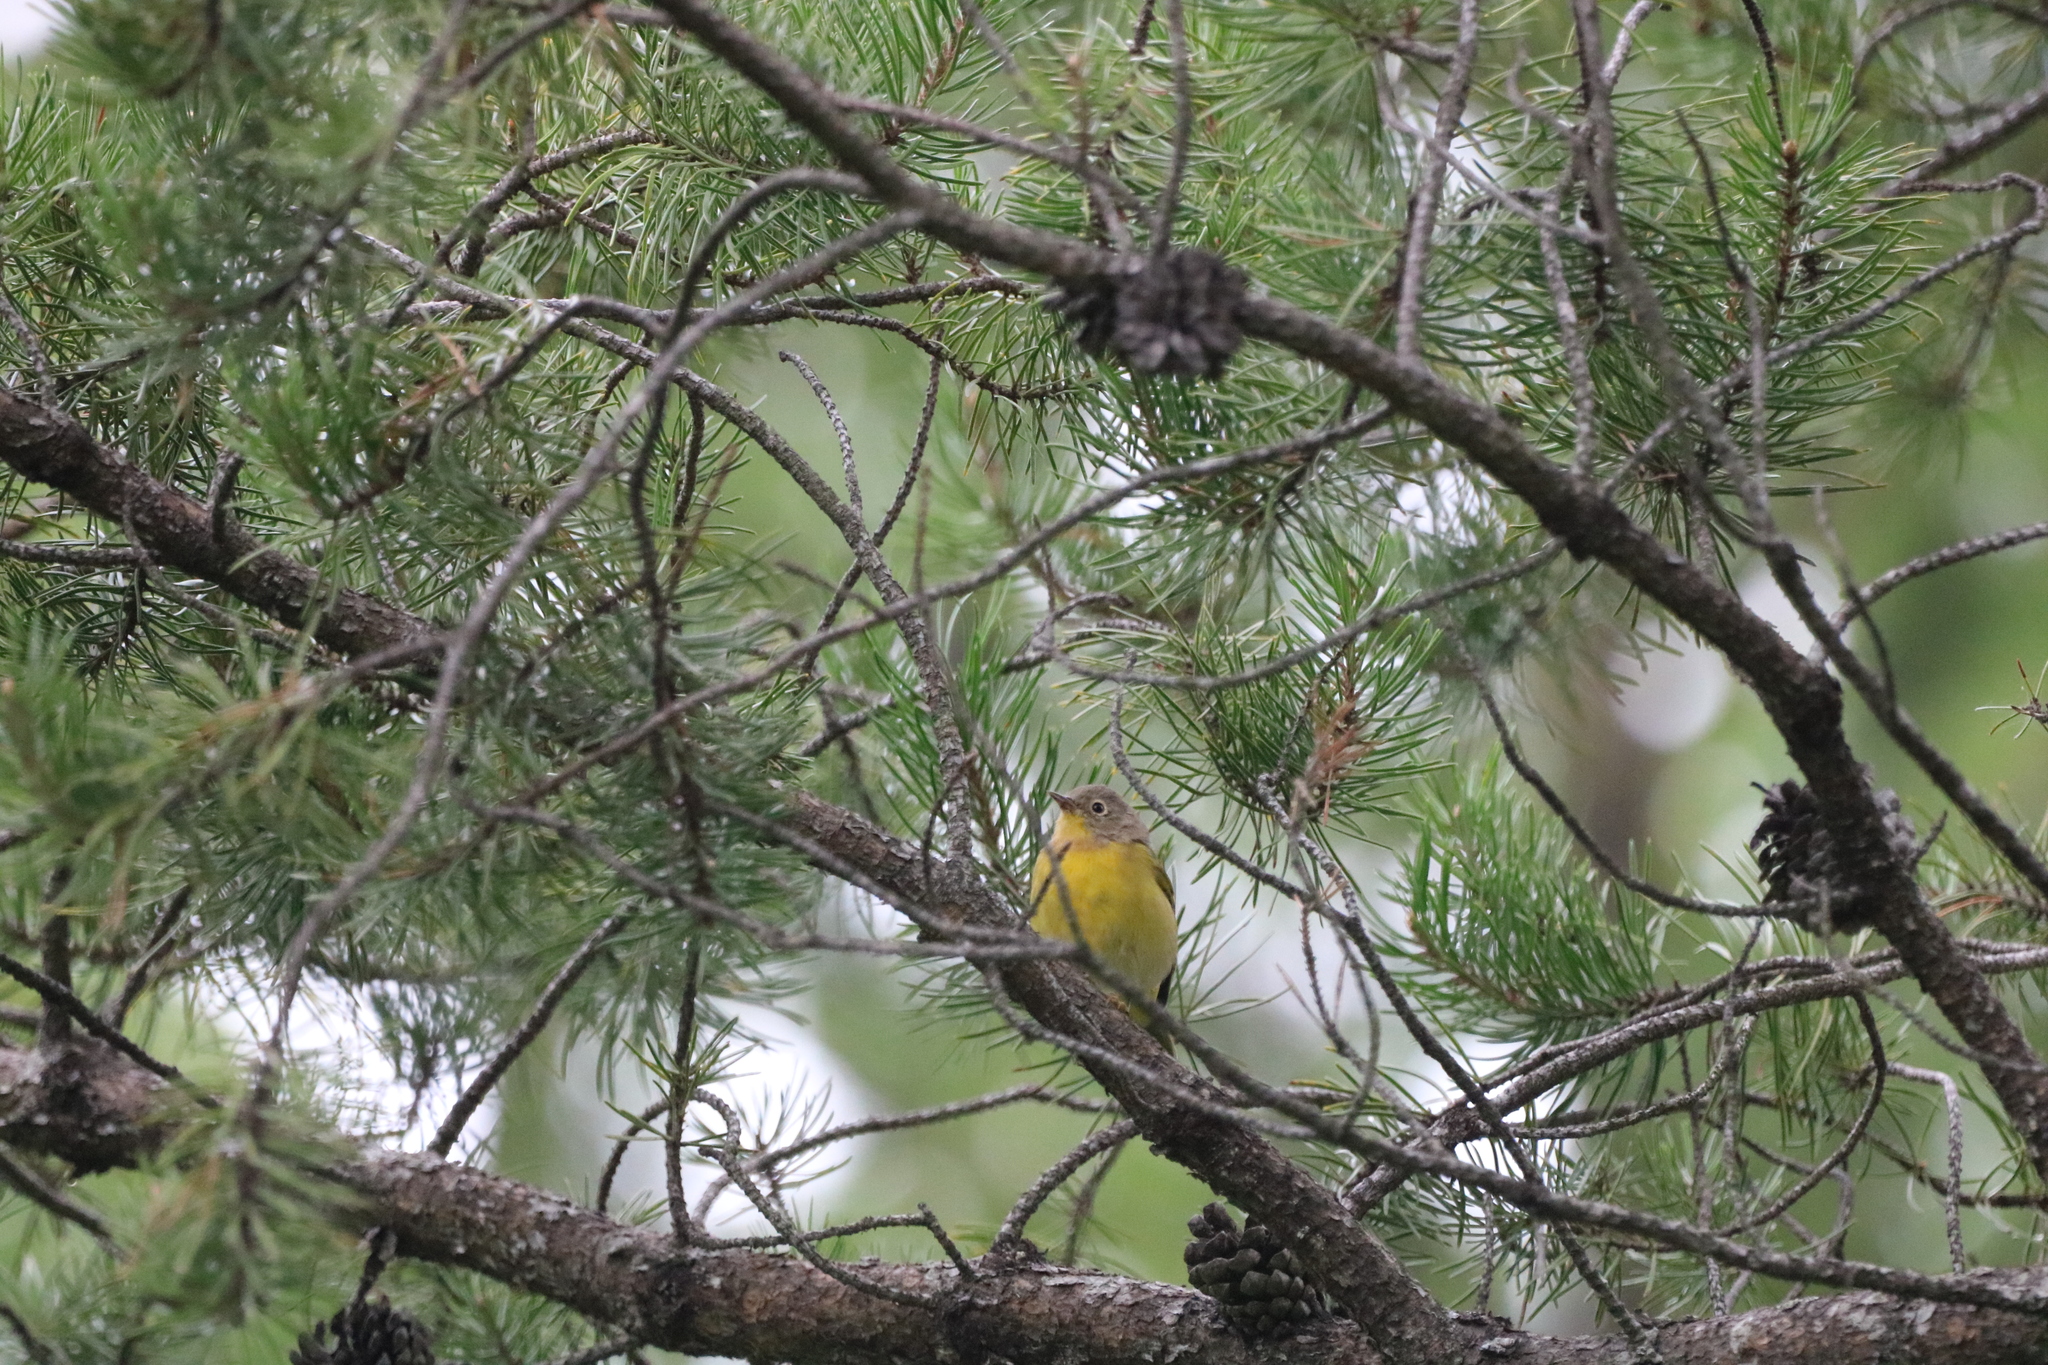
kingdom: Animalia
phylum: Chordata
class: Aves
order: Passeriformes
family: Parulidae
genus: Leiothlypis
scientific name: Leiothlypis ruficapilla
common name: Nashville warbler
